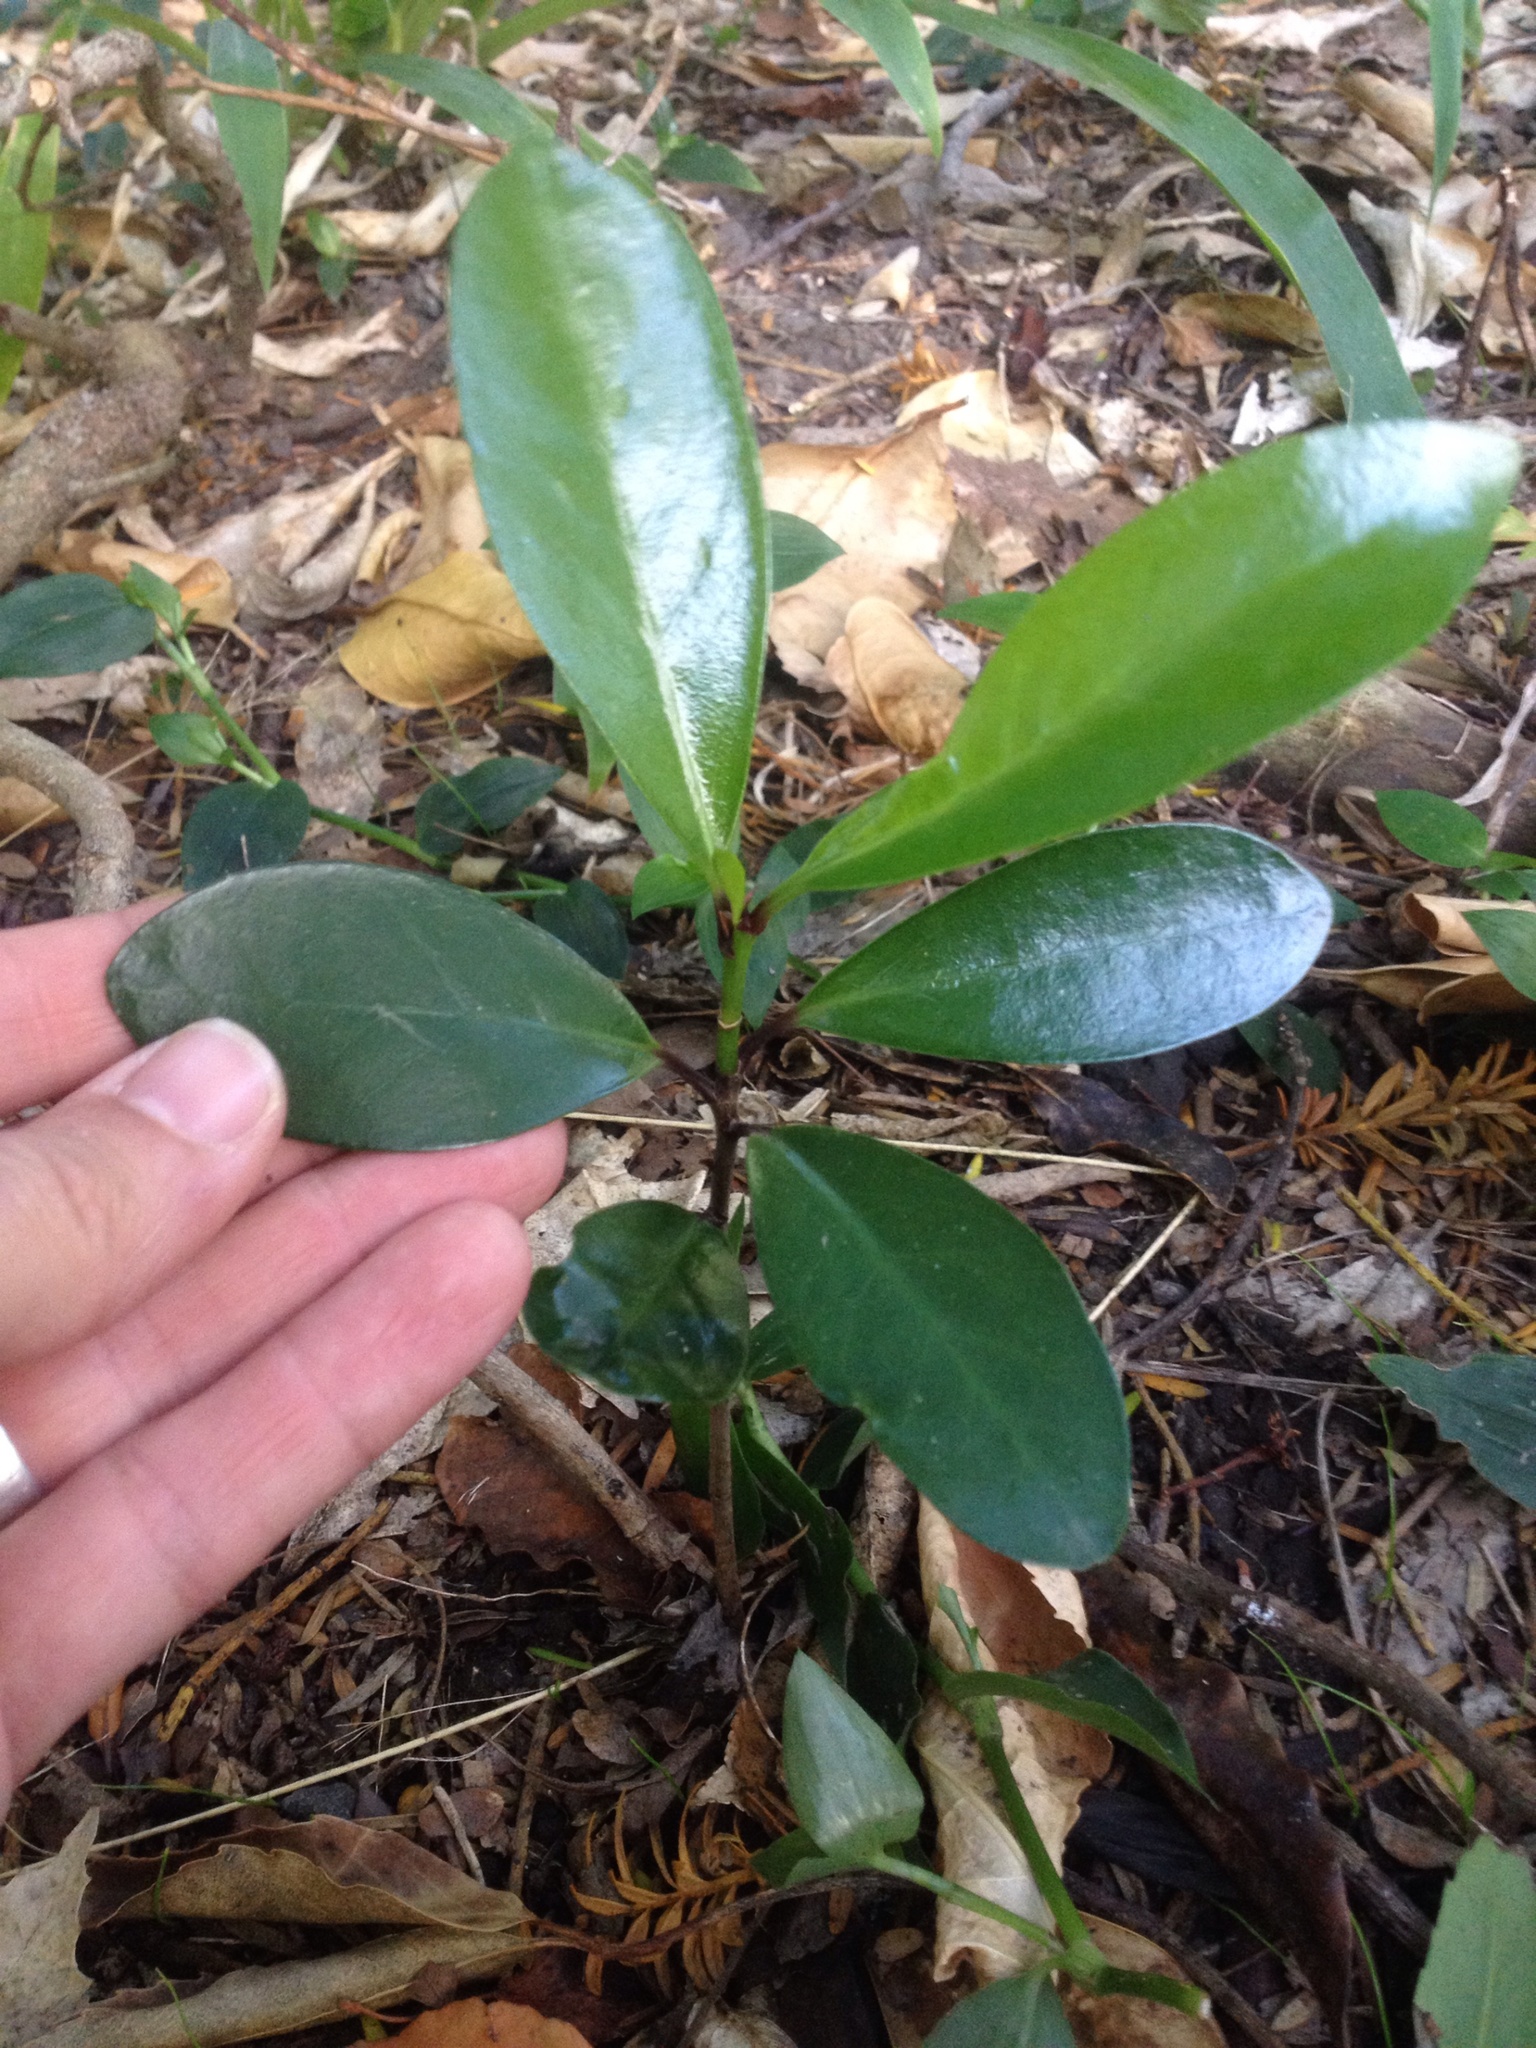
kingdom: Plantae
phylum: Tracheophyta
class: Magnoliopsida
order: Cucurbitales
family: Corynocarpaceae
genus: Corynocarpus
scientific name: Corynocarpus laevigatus
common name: New zealand laurel
